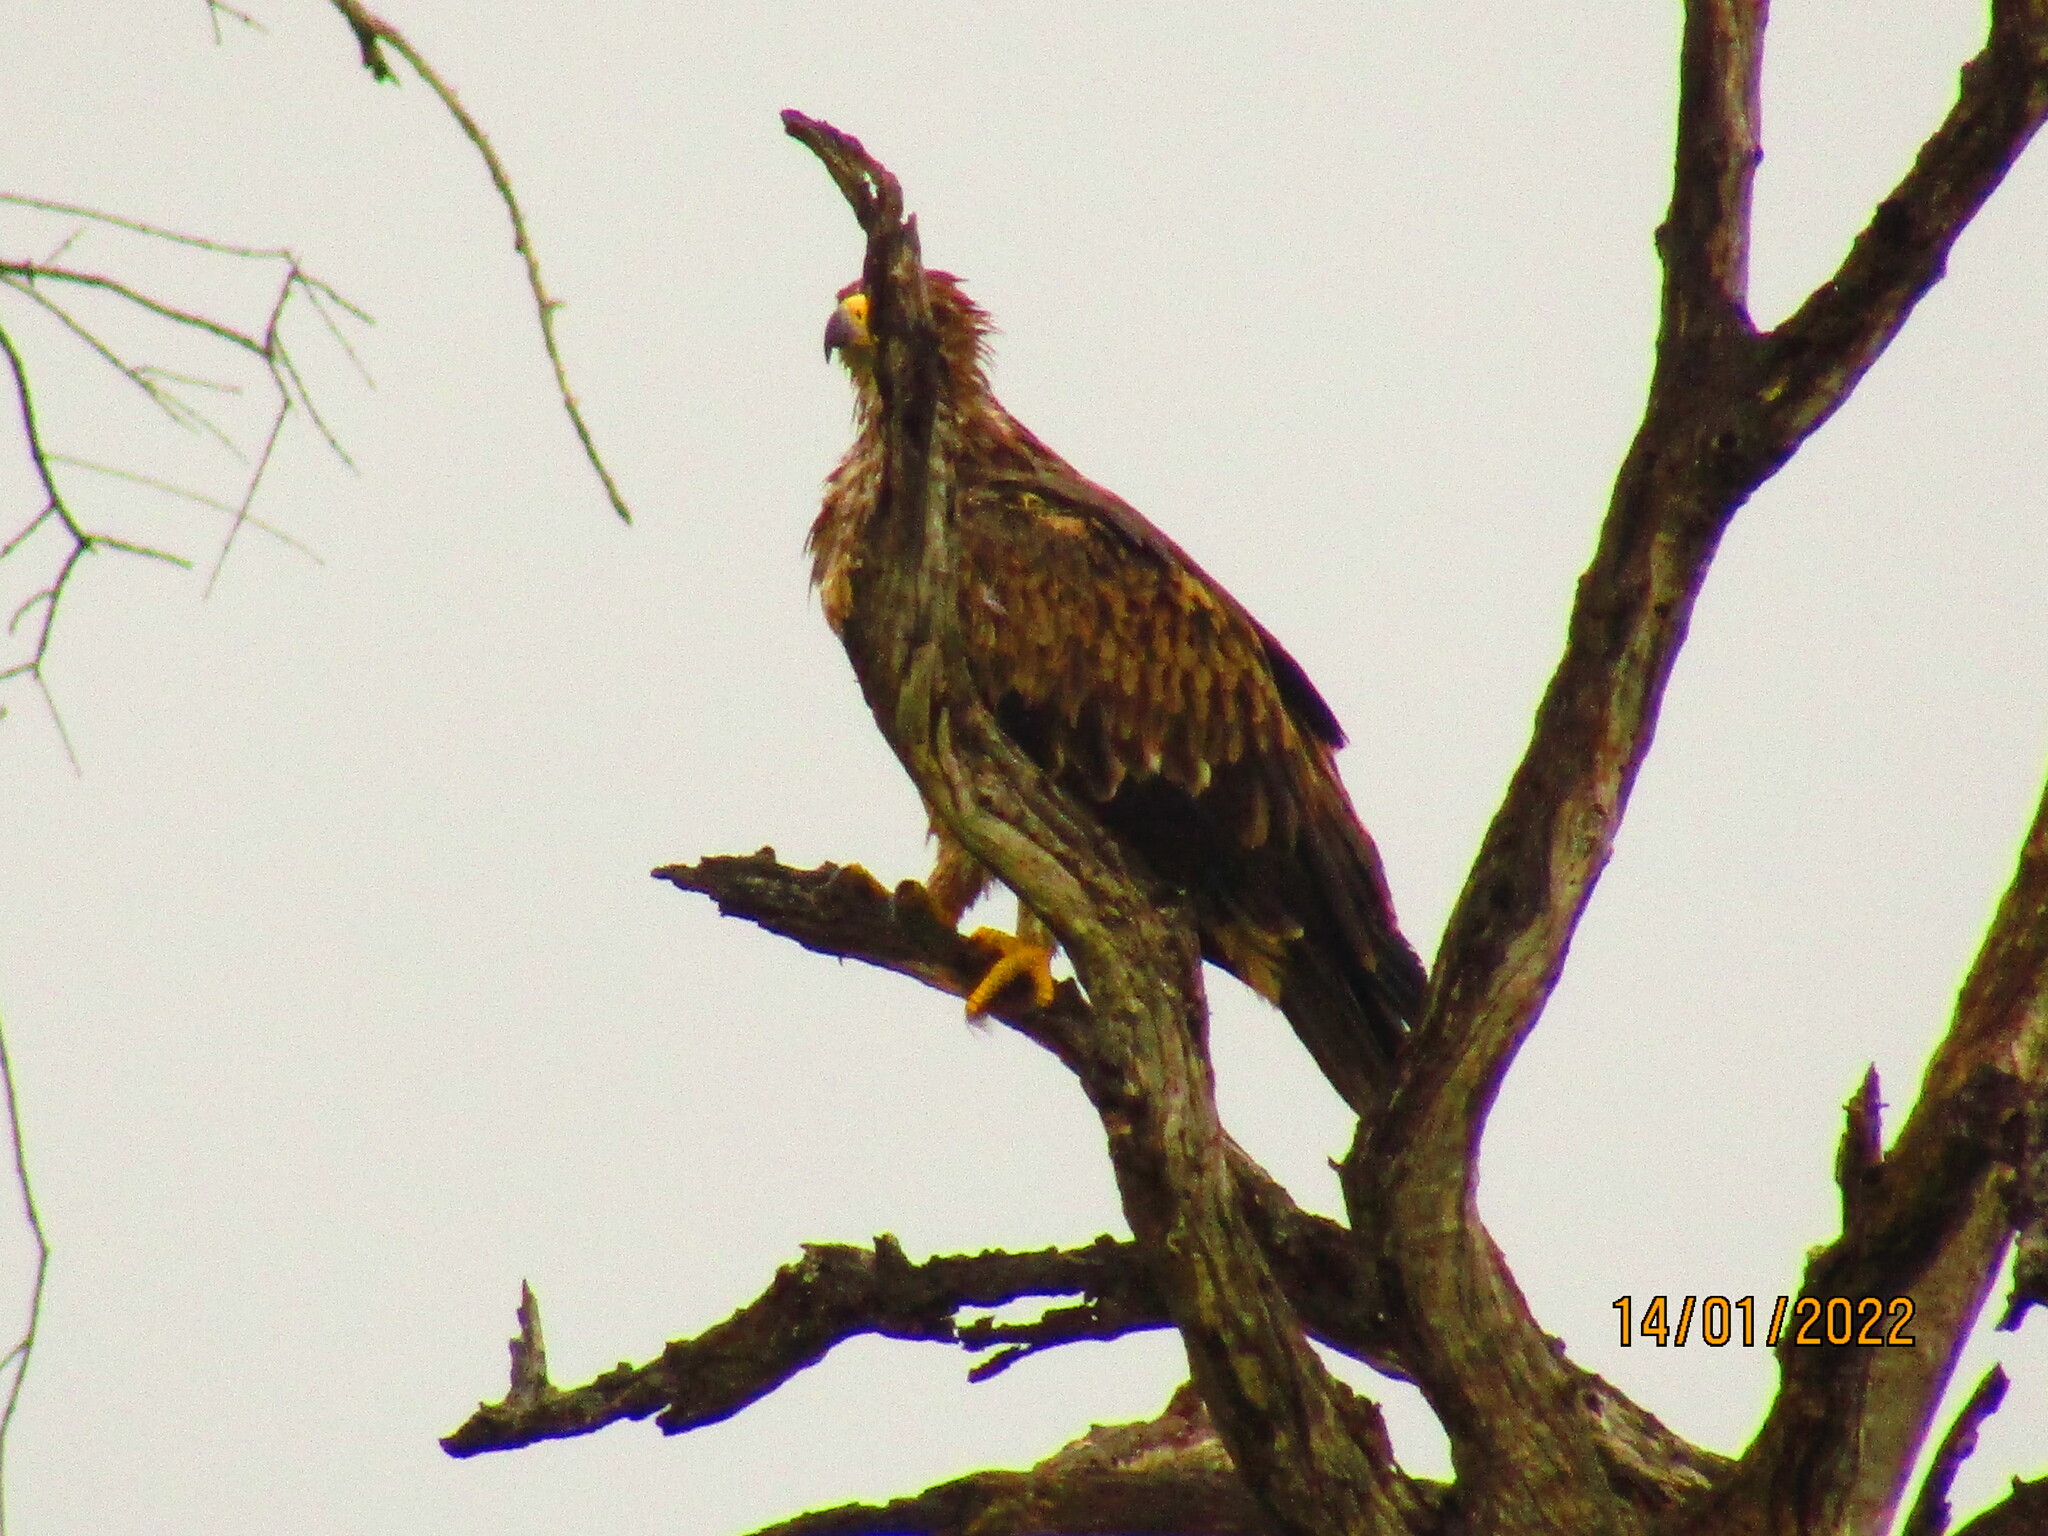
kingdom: Animalia
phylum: Chordata
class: Aves
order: Accipitriformes
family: Accipitridae
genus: Aquila
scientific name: Aquila rapax
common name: Tawny eagle
